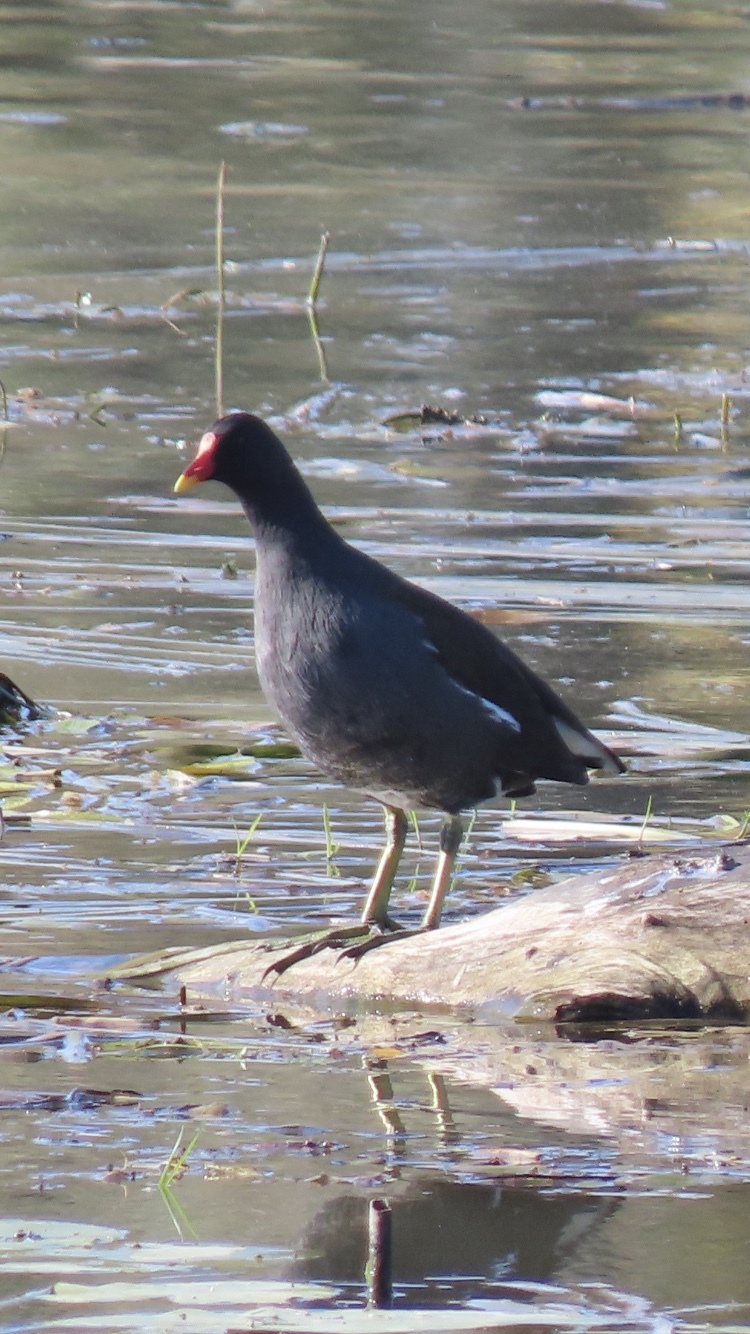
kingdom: Animalia
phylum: Chordata
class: Aves
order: Gruiformes
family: Rallidae
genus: Gallinula
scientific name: Gallinula chloropus
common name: Common moorhen
